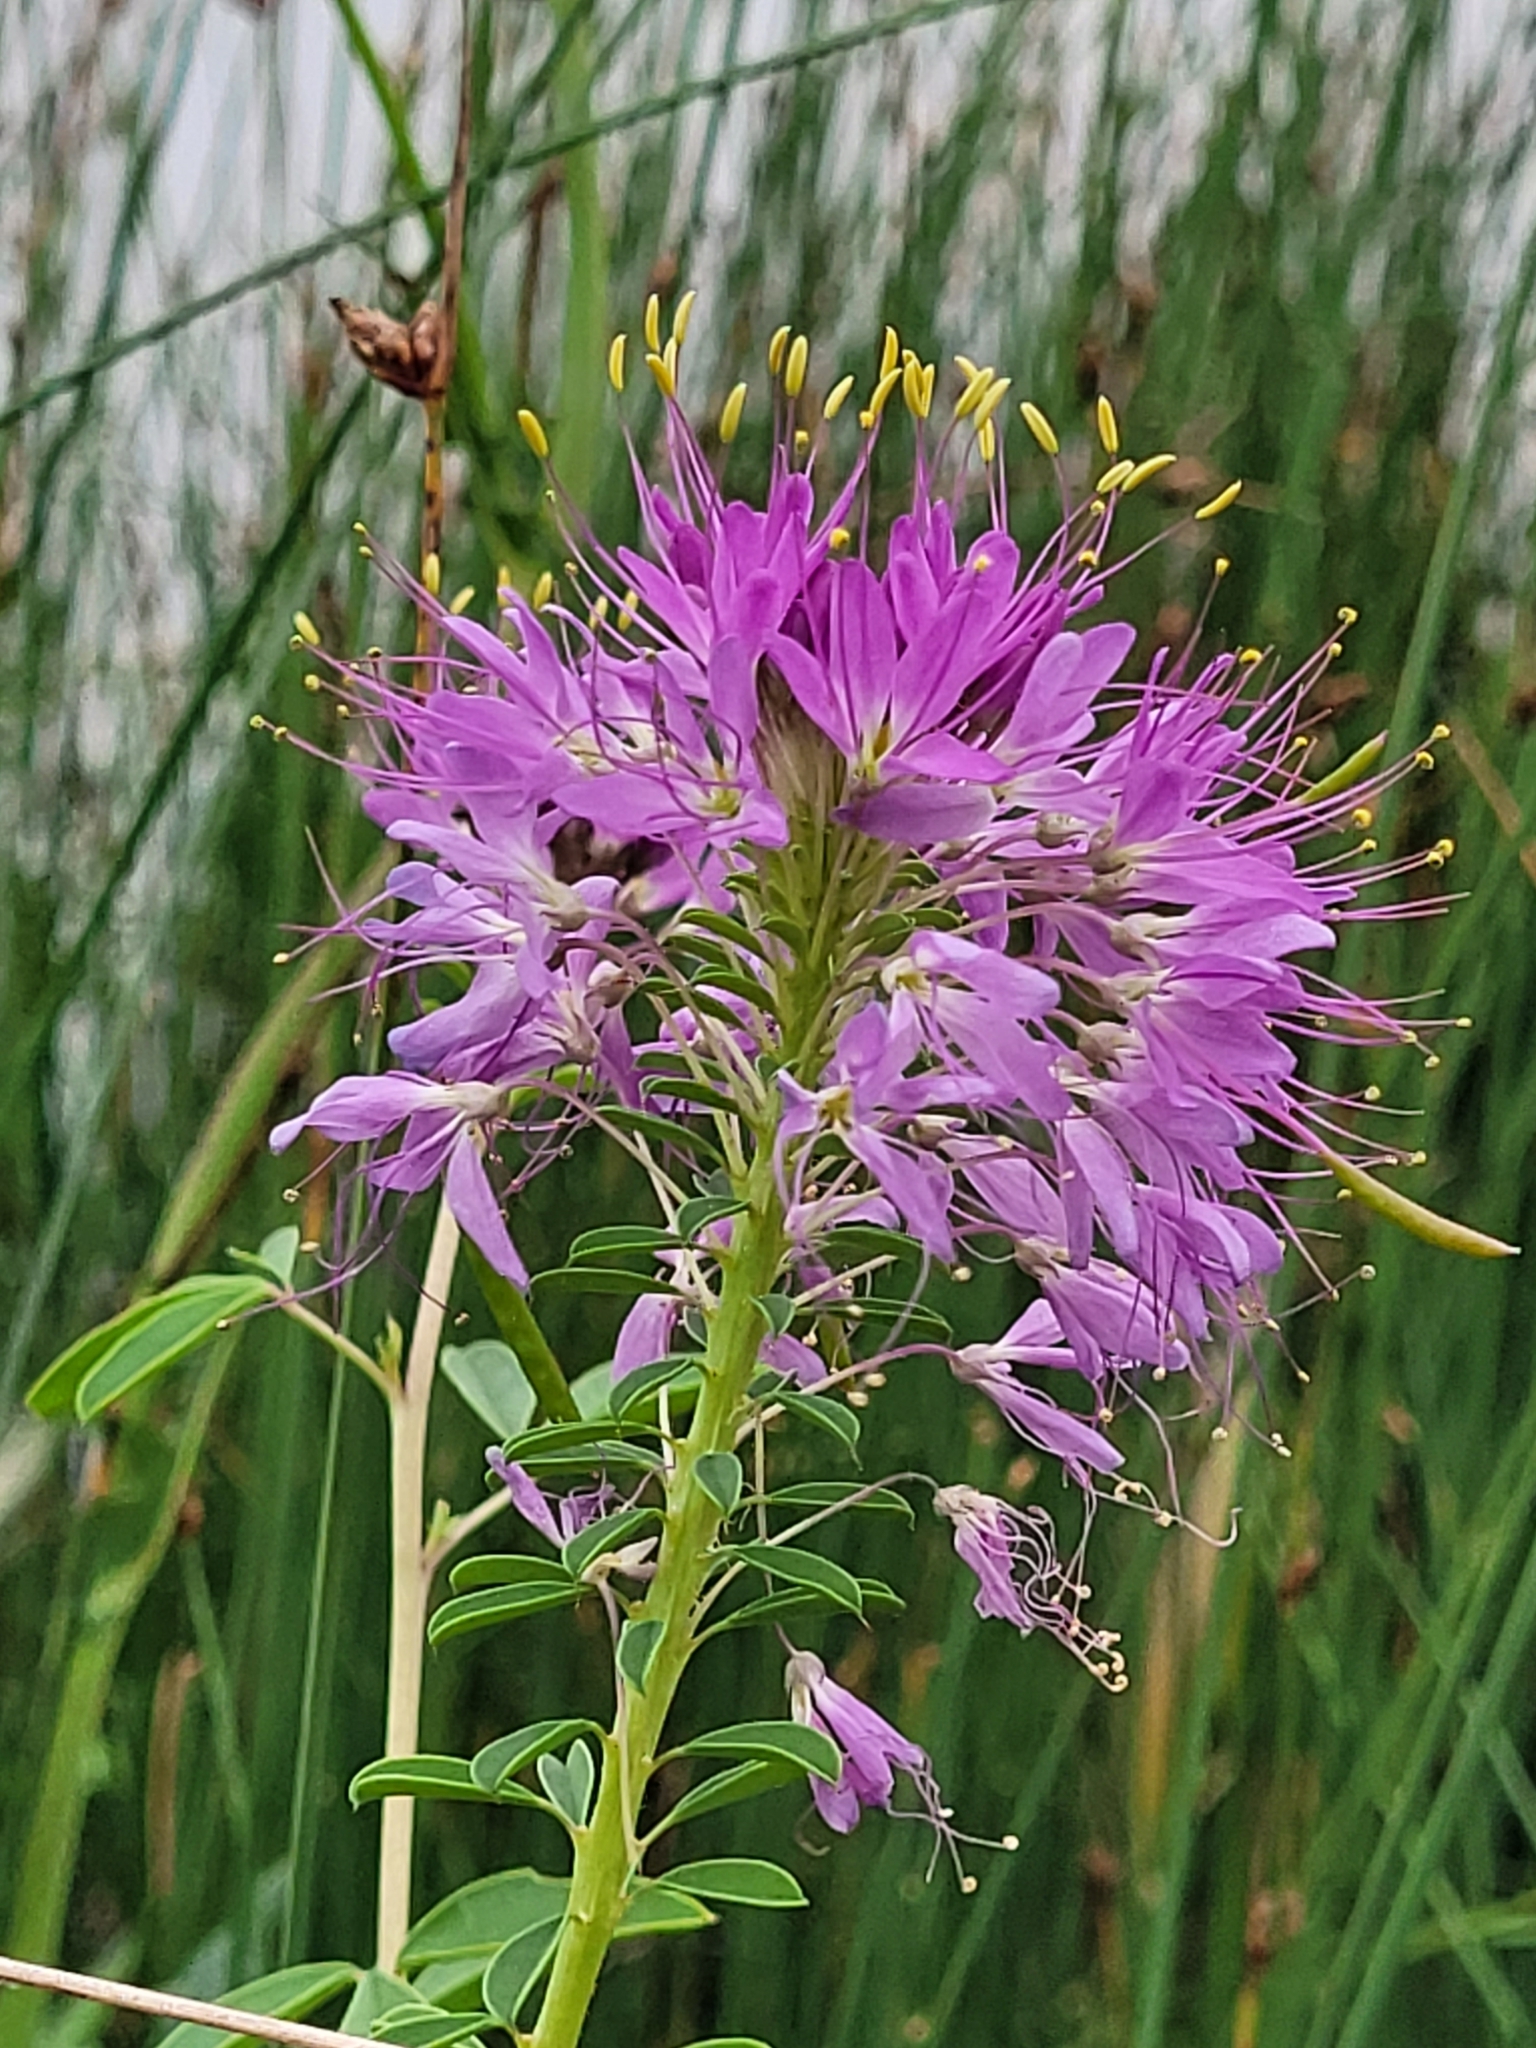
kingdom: Plantae
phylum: Tracheophyta
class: Magnoliopsida
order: Brassicales
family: Cleomaceae
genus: Cleomella
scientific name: Cleomella serrulata
